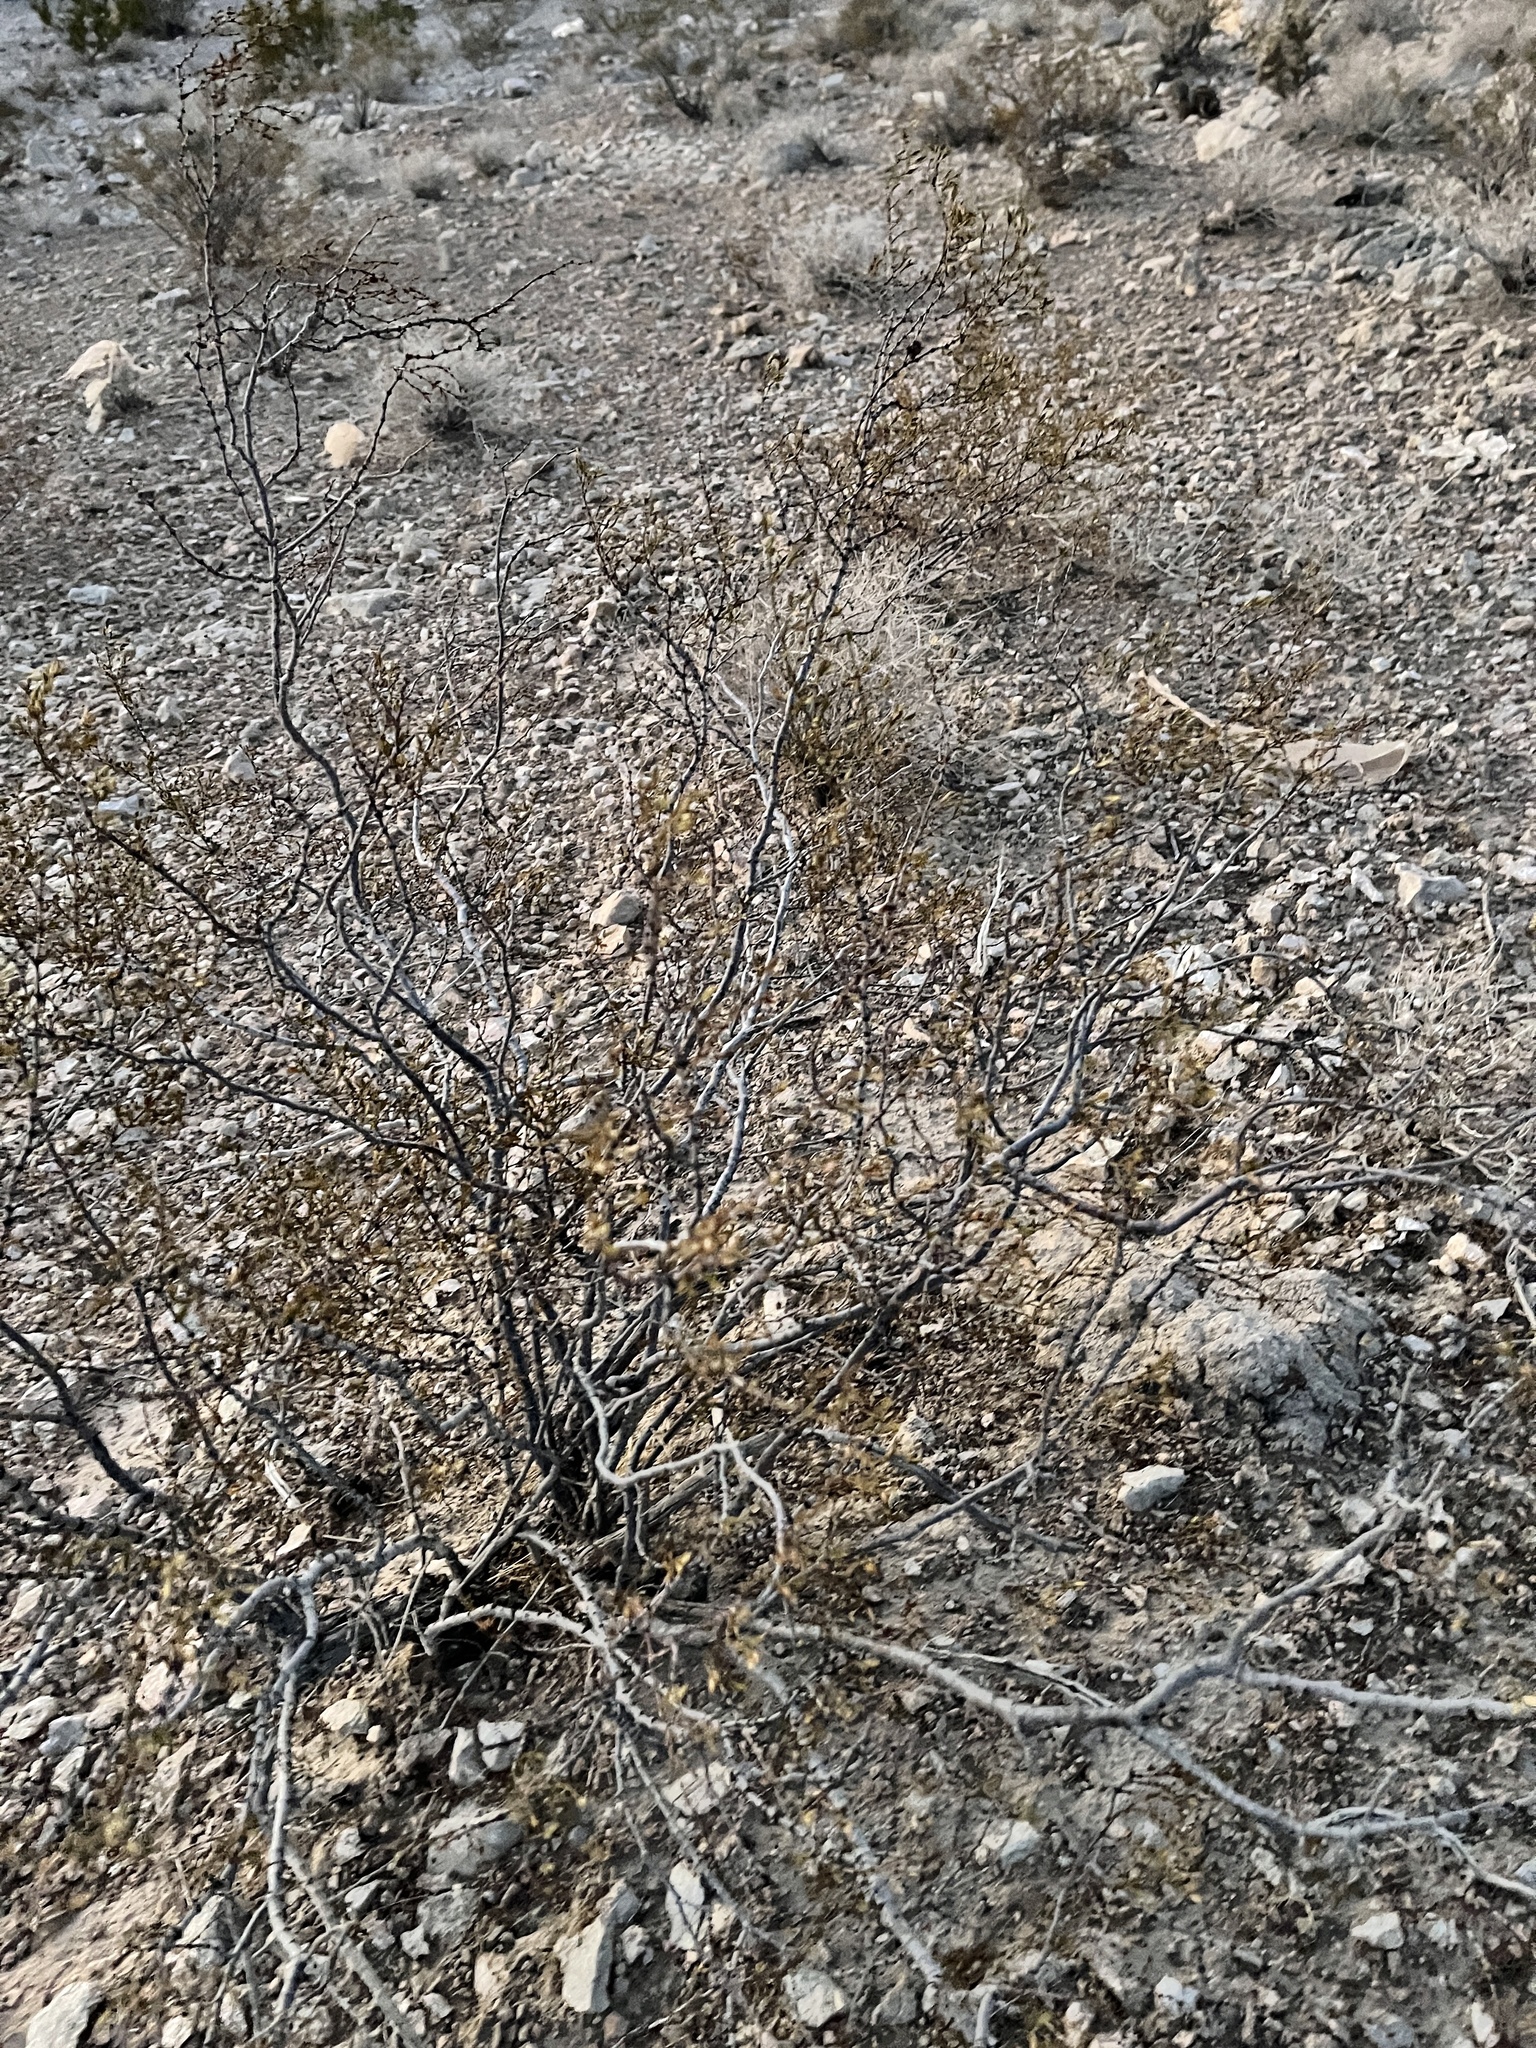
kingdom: Plantae
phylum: Tracheophyta
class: Magnoliopsida
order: Zygophyllales
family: Zygophyllaceae
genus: Larrea
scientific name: Larrea tridentata
